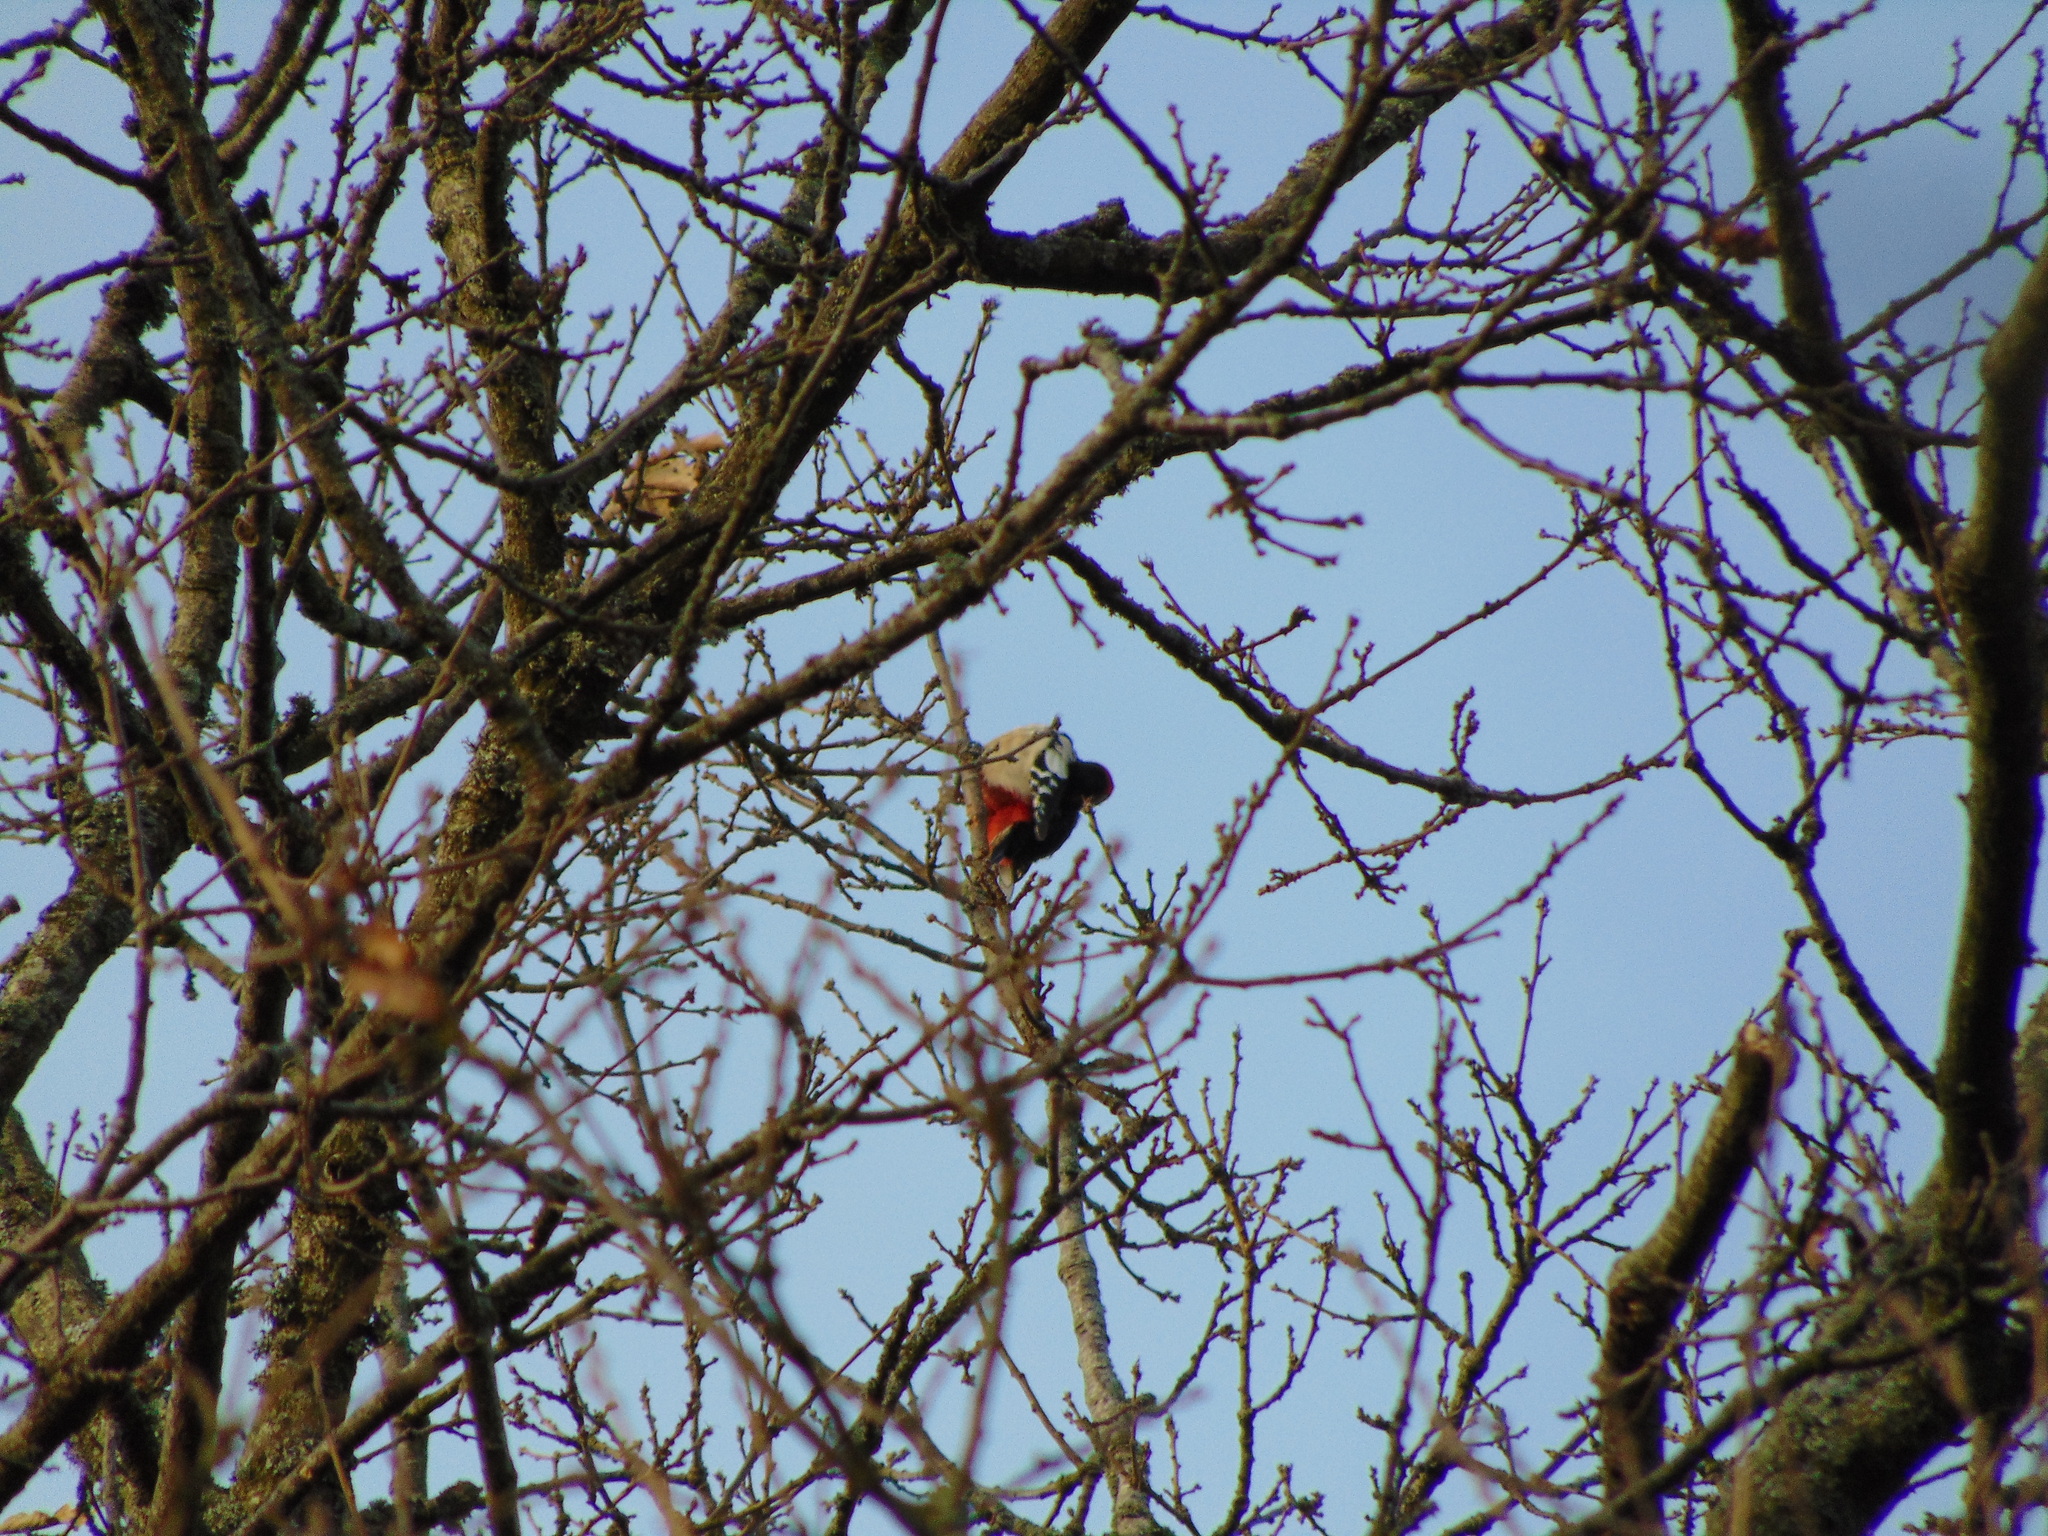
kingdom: Animalia
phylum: Chordata
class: Aves
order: Piciformes
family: Picidae
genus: Dendrocopos
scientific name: Dendrocopos major
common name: Great spotted woodpecker
